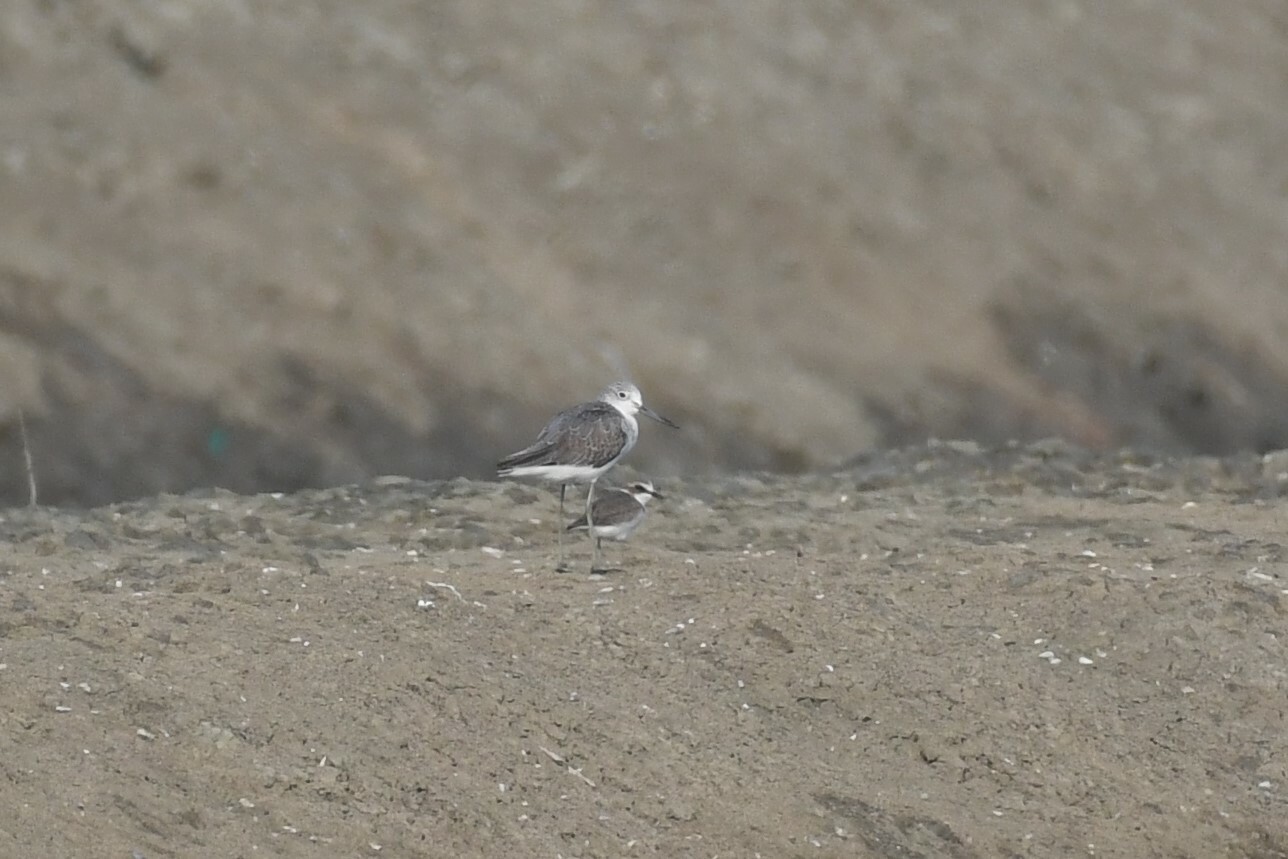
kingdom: Animalia
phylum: Chordata
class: Aves
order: Charadriiformes
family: Scolopacidae
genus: Tringa
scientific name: Tringa nebularia
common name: Common greenshank
